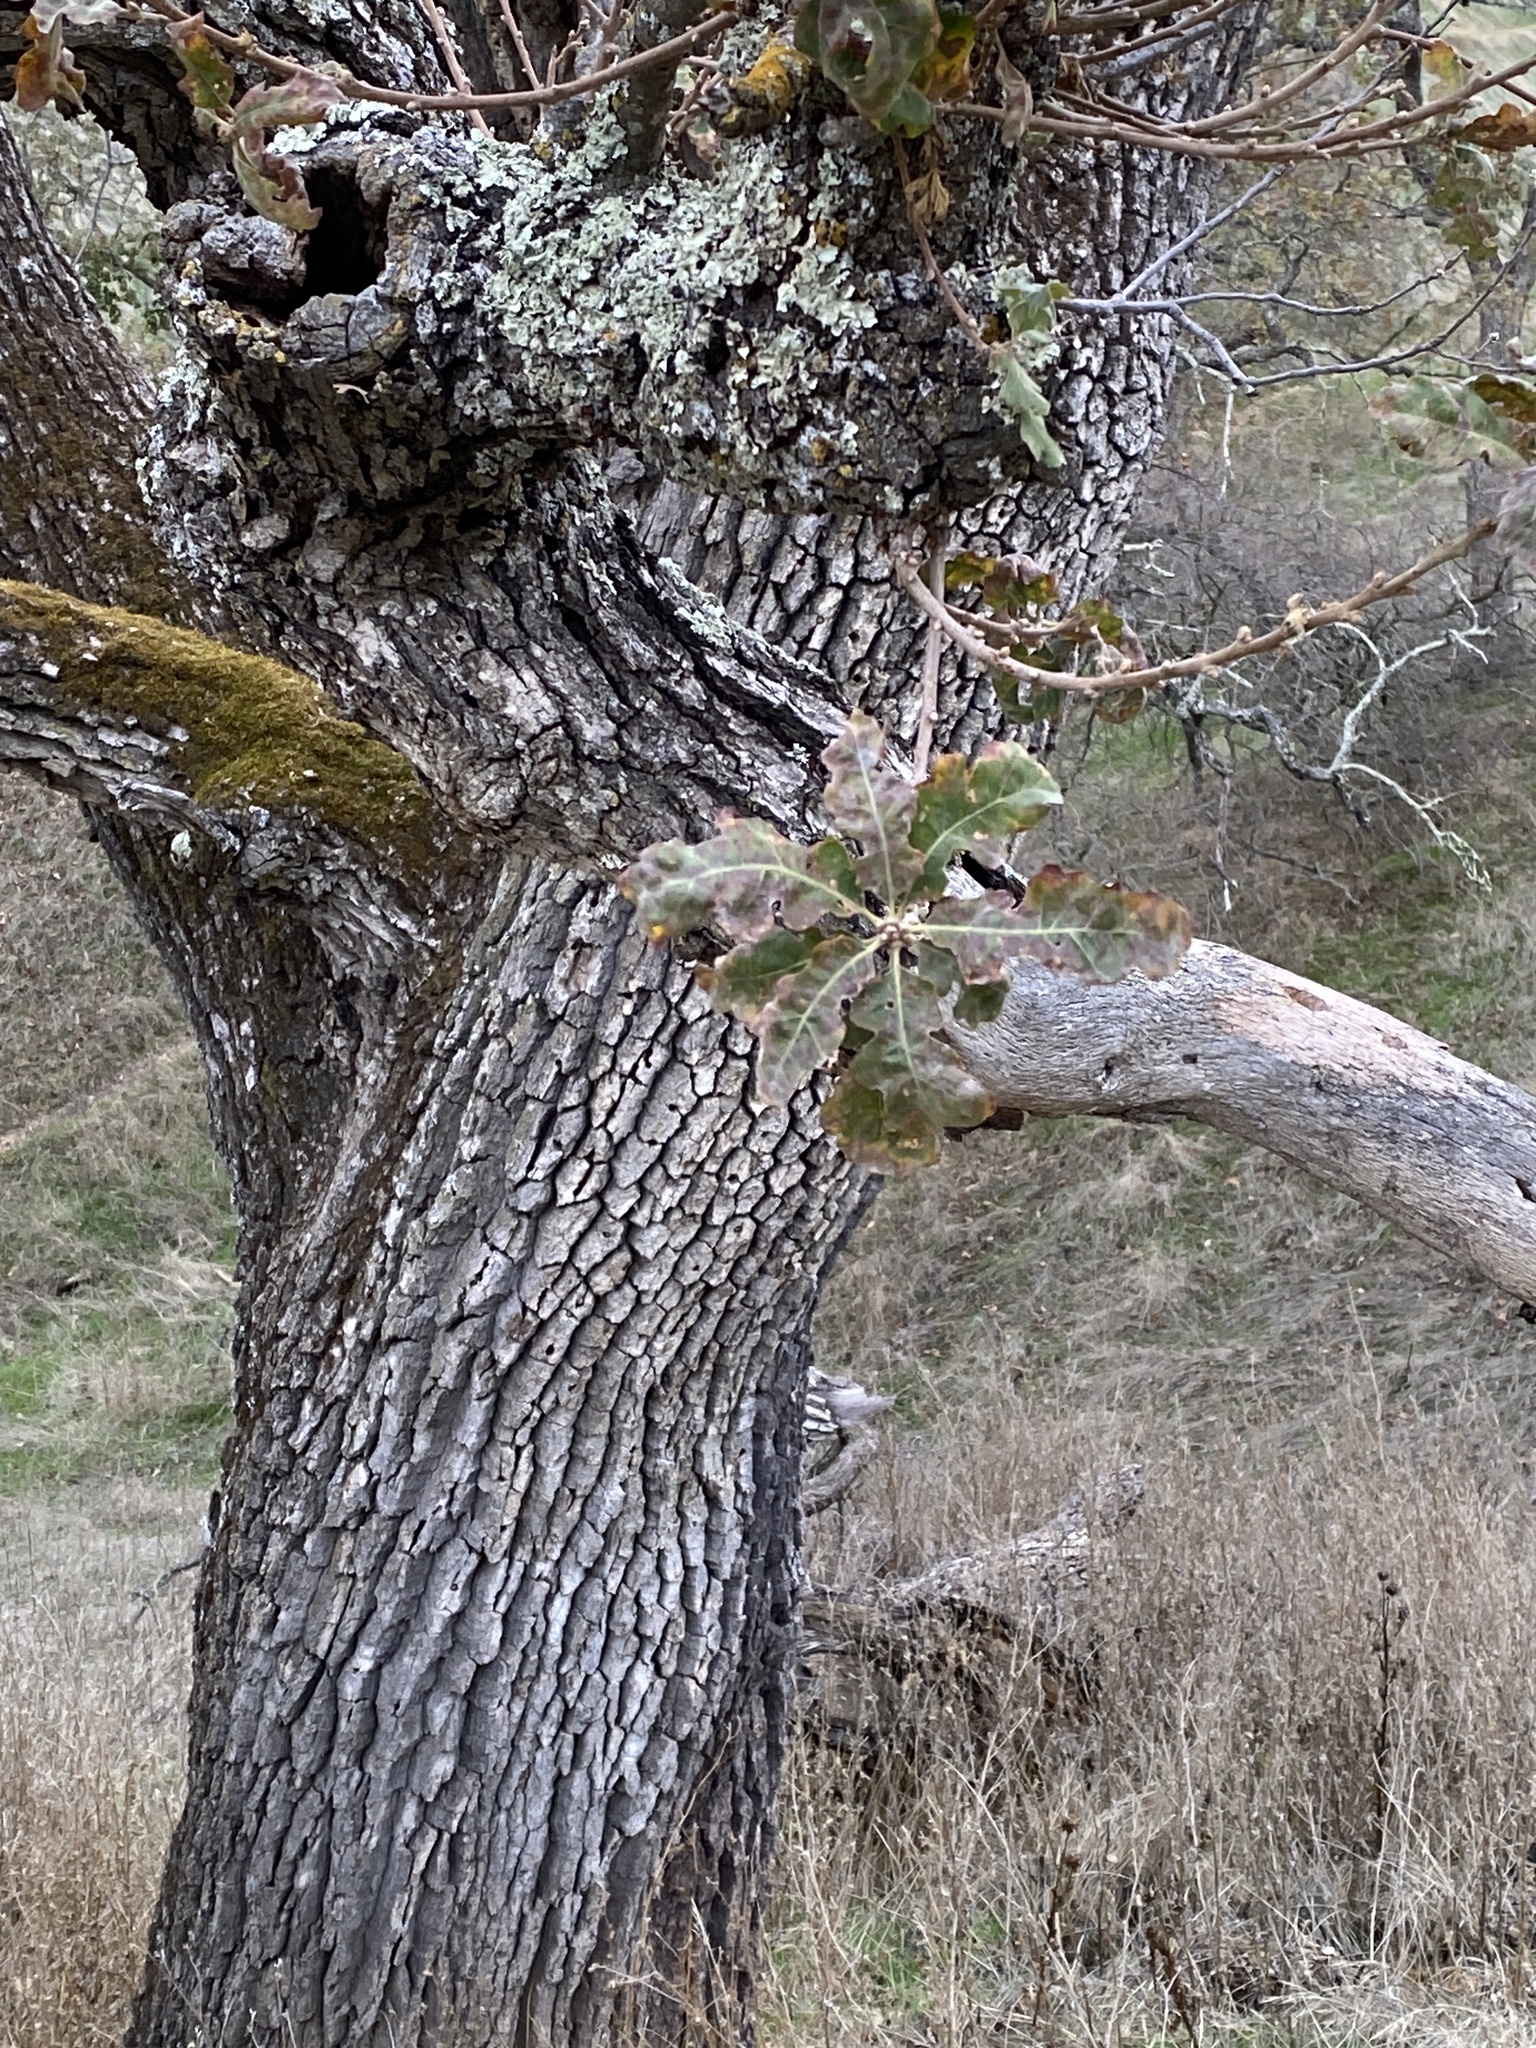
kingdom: Plantae
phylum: Tracheophyta
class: Magnoliopsida
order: Fagales
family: Fagaceae
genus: Quercus
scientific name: Quercus garryana
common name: Garry oak
